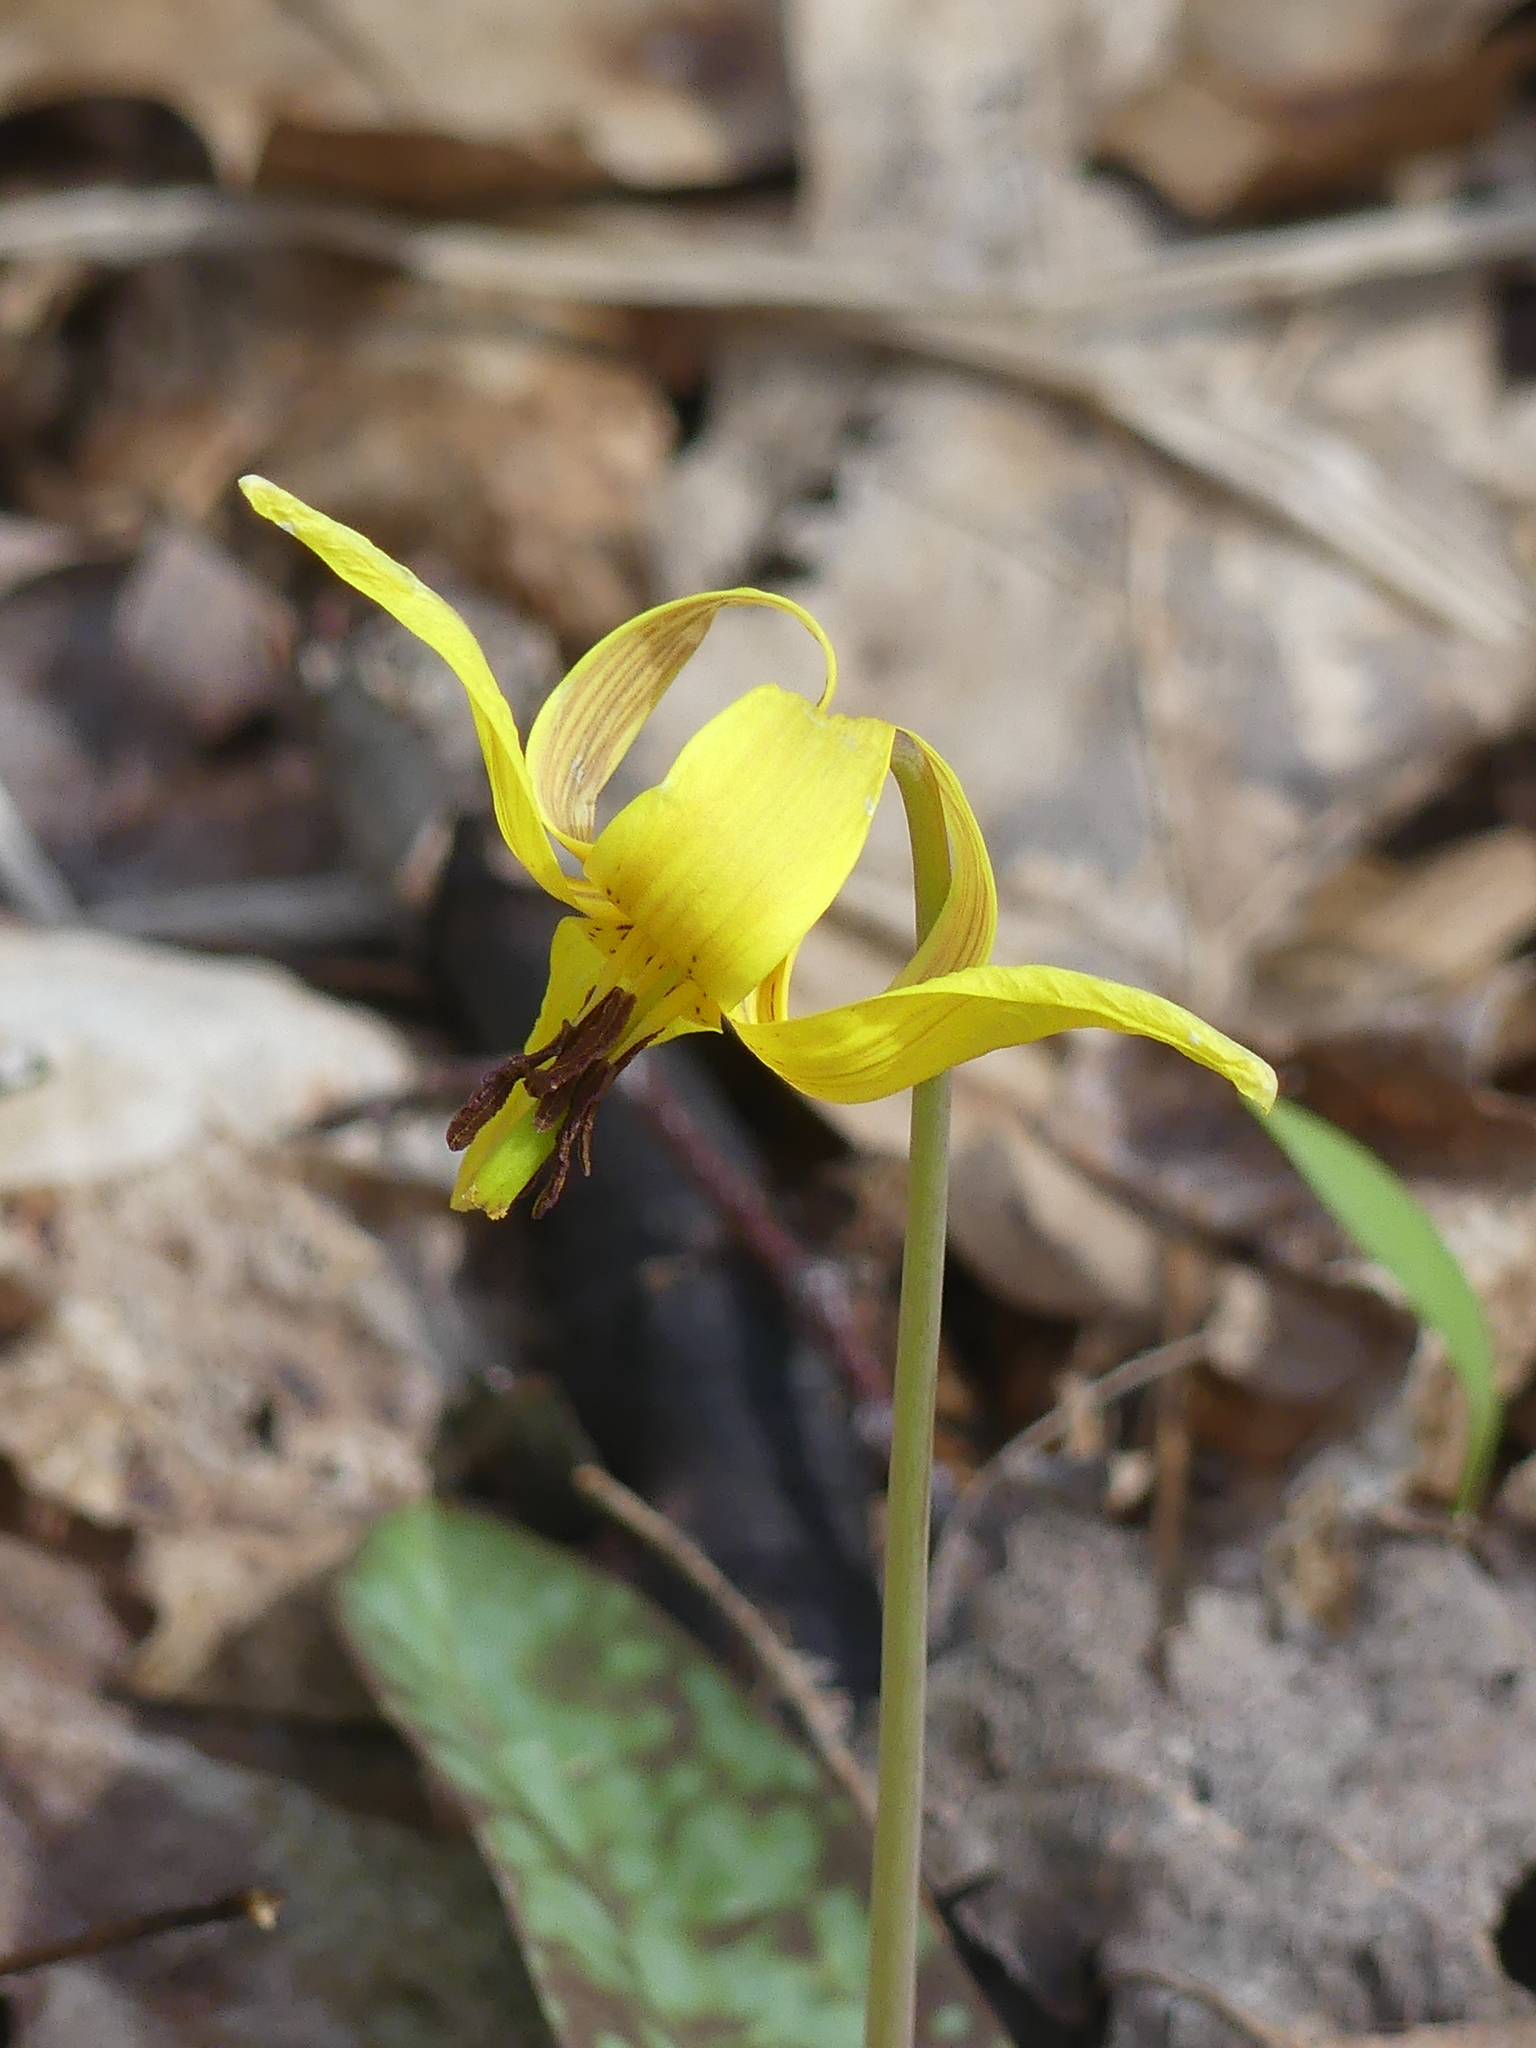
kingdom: Plantae
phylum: Tracheophyta
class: Liliopsida
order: Liliales
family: Liliaceae
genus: Erythronium
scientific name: Erythronium americanum
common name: Yellow adder's-tongue
